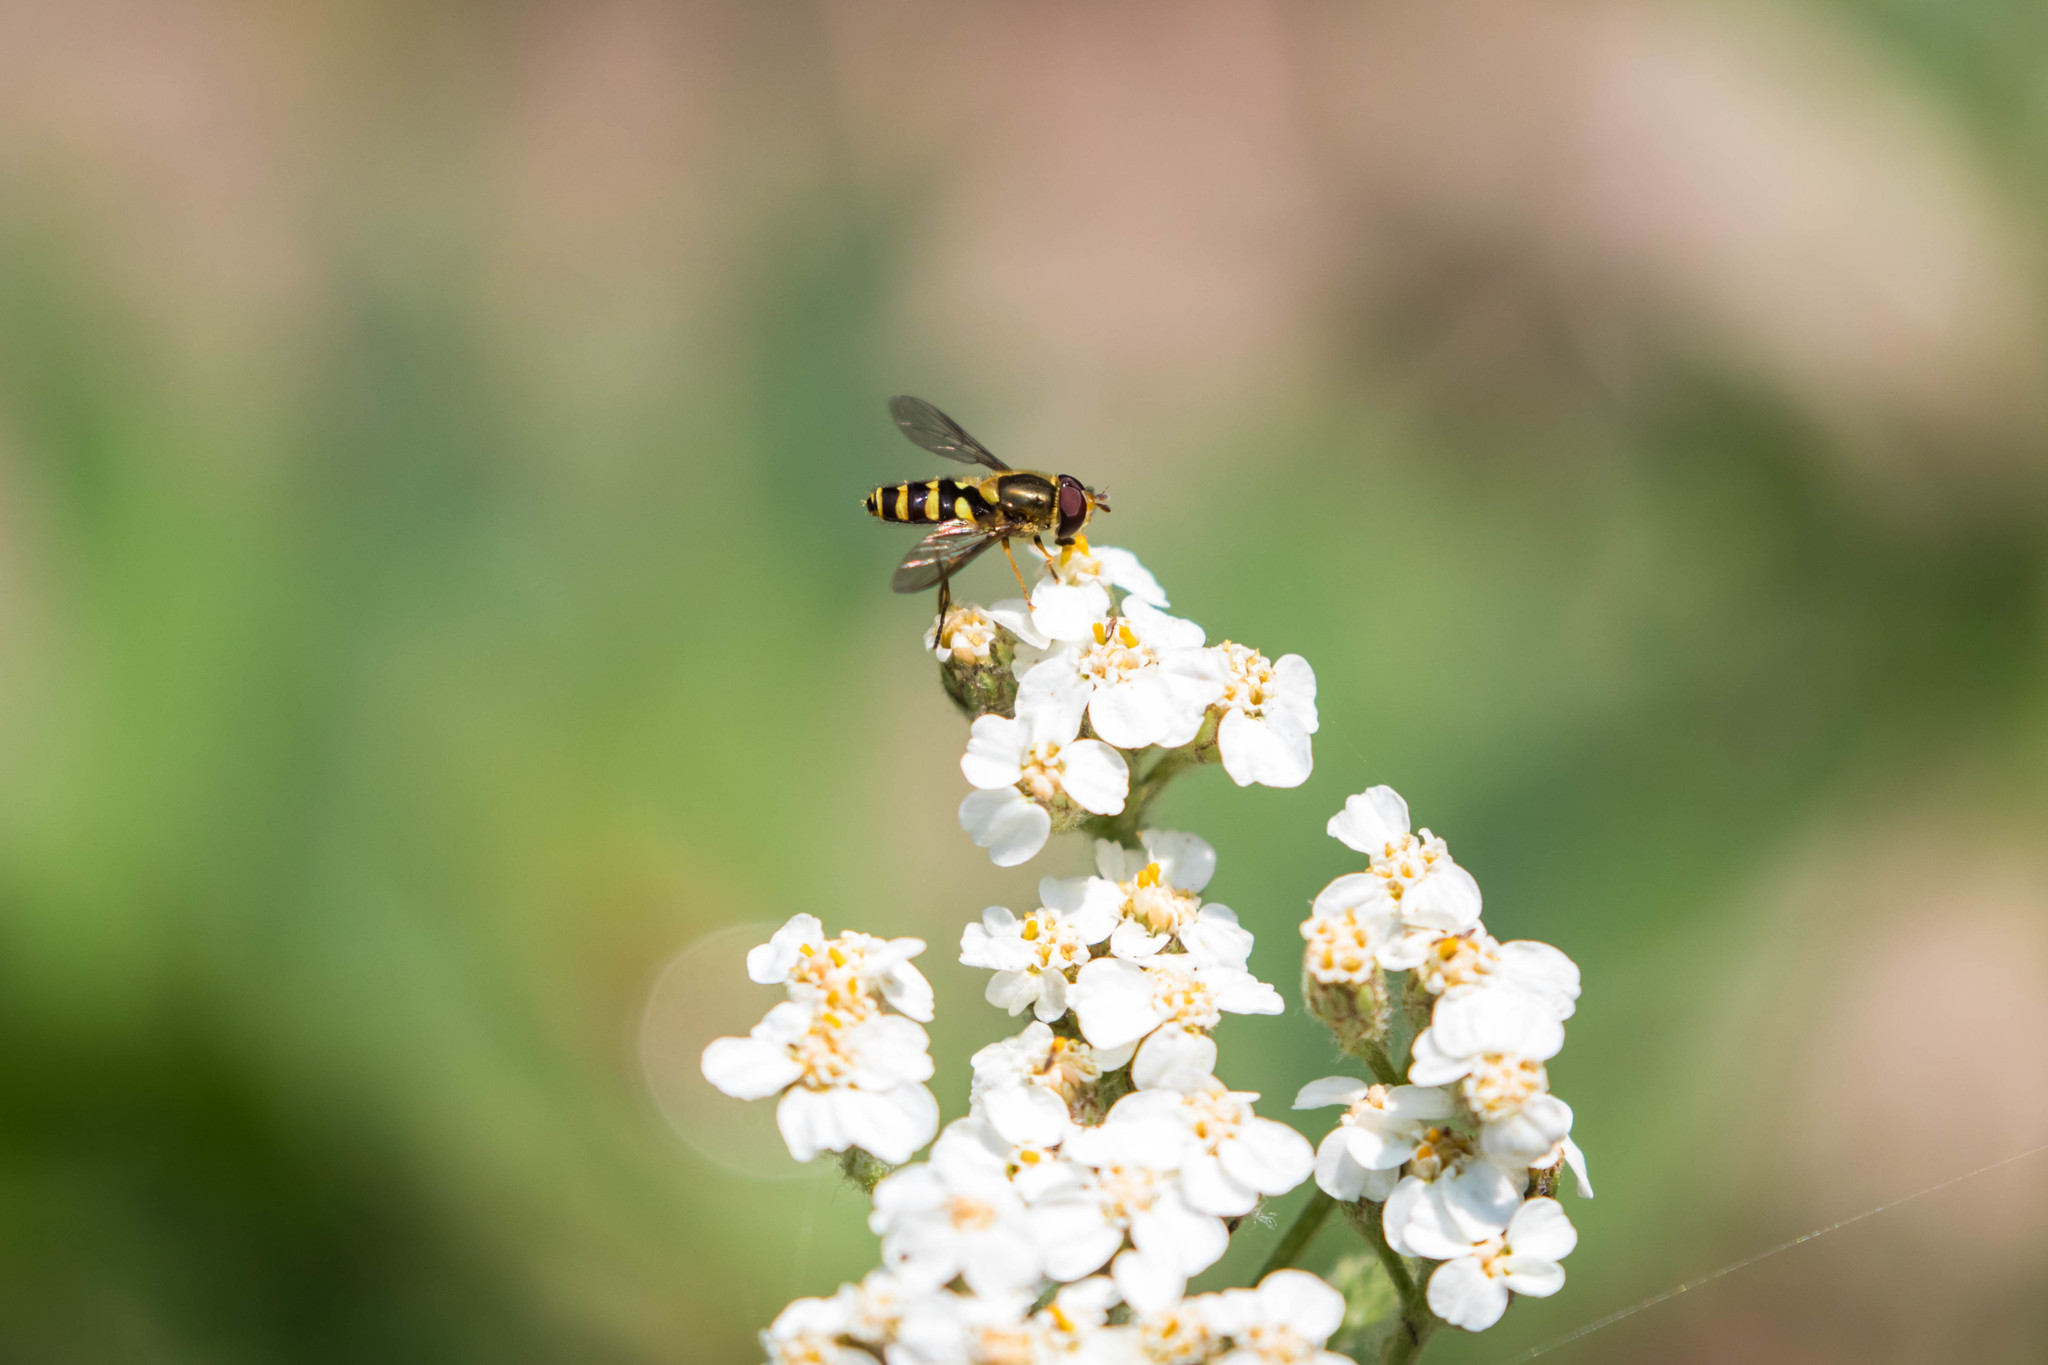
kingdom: Animalia
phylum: Arthropoda
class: Insecta
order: Diptera
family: Syrphidae
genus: Syrphus
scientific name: Syrphus opinator
